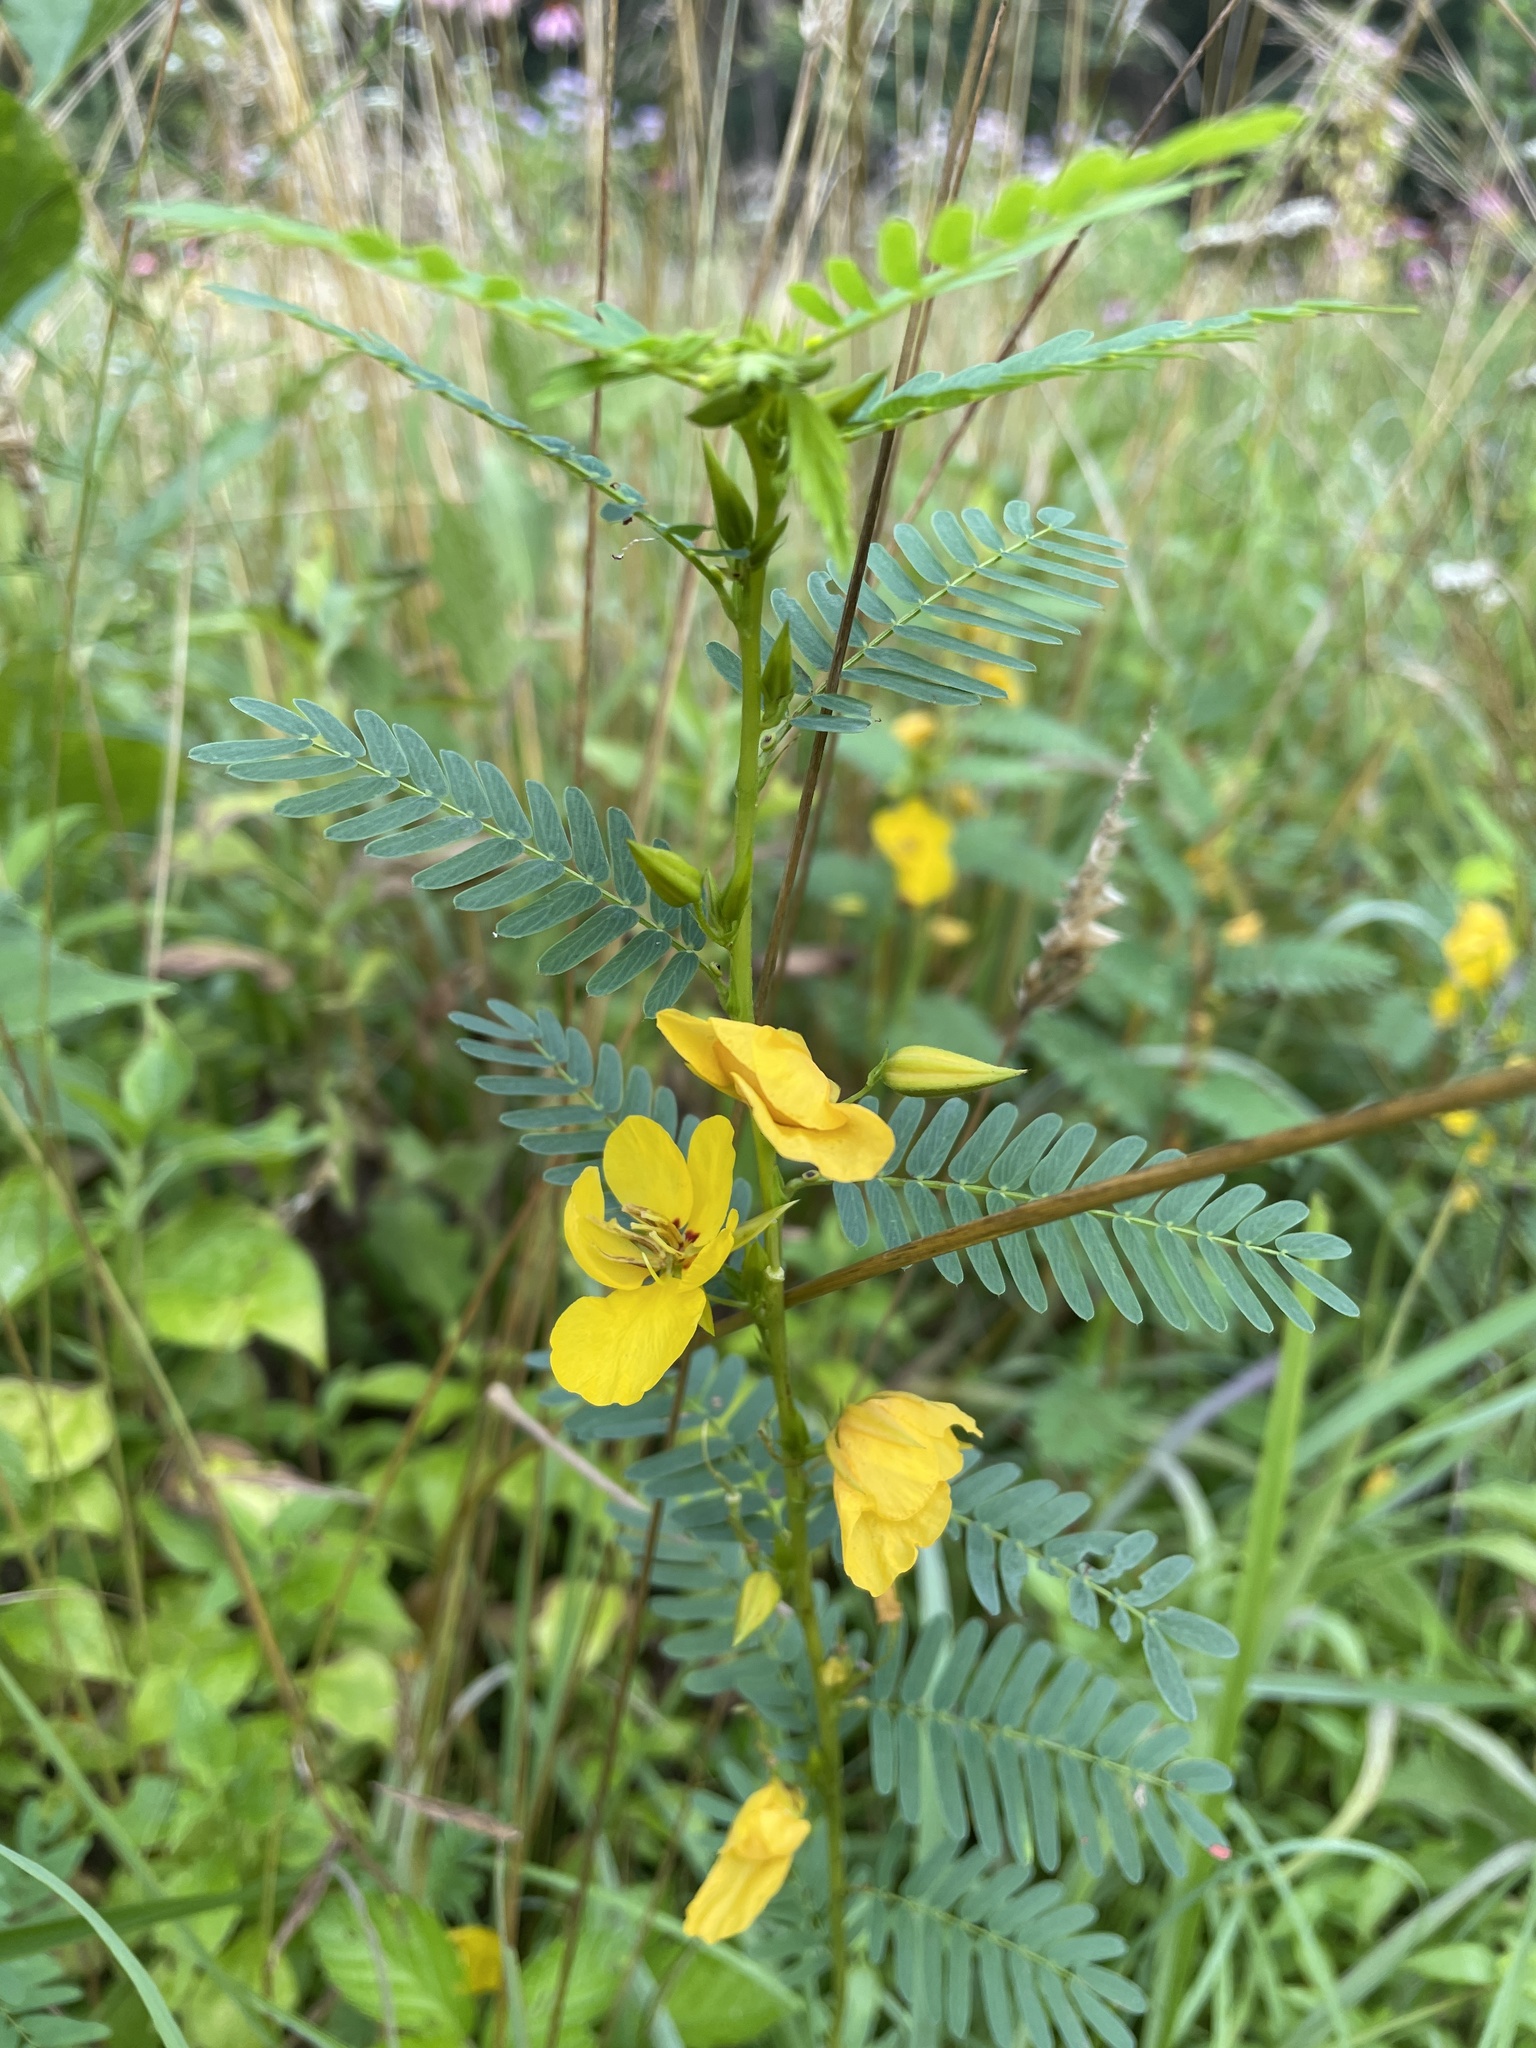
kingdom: Plantae
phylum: Tracheophyta
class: Magnoliopsida
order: Fabales
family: Fabaceae
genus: Chamaecrista
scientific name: Chamaecrista fasciculata
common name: Golden cassia
